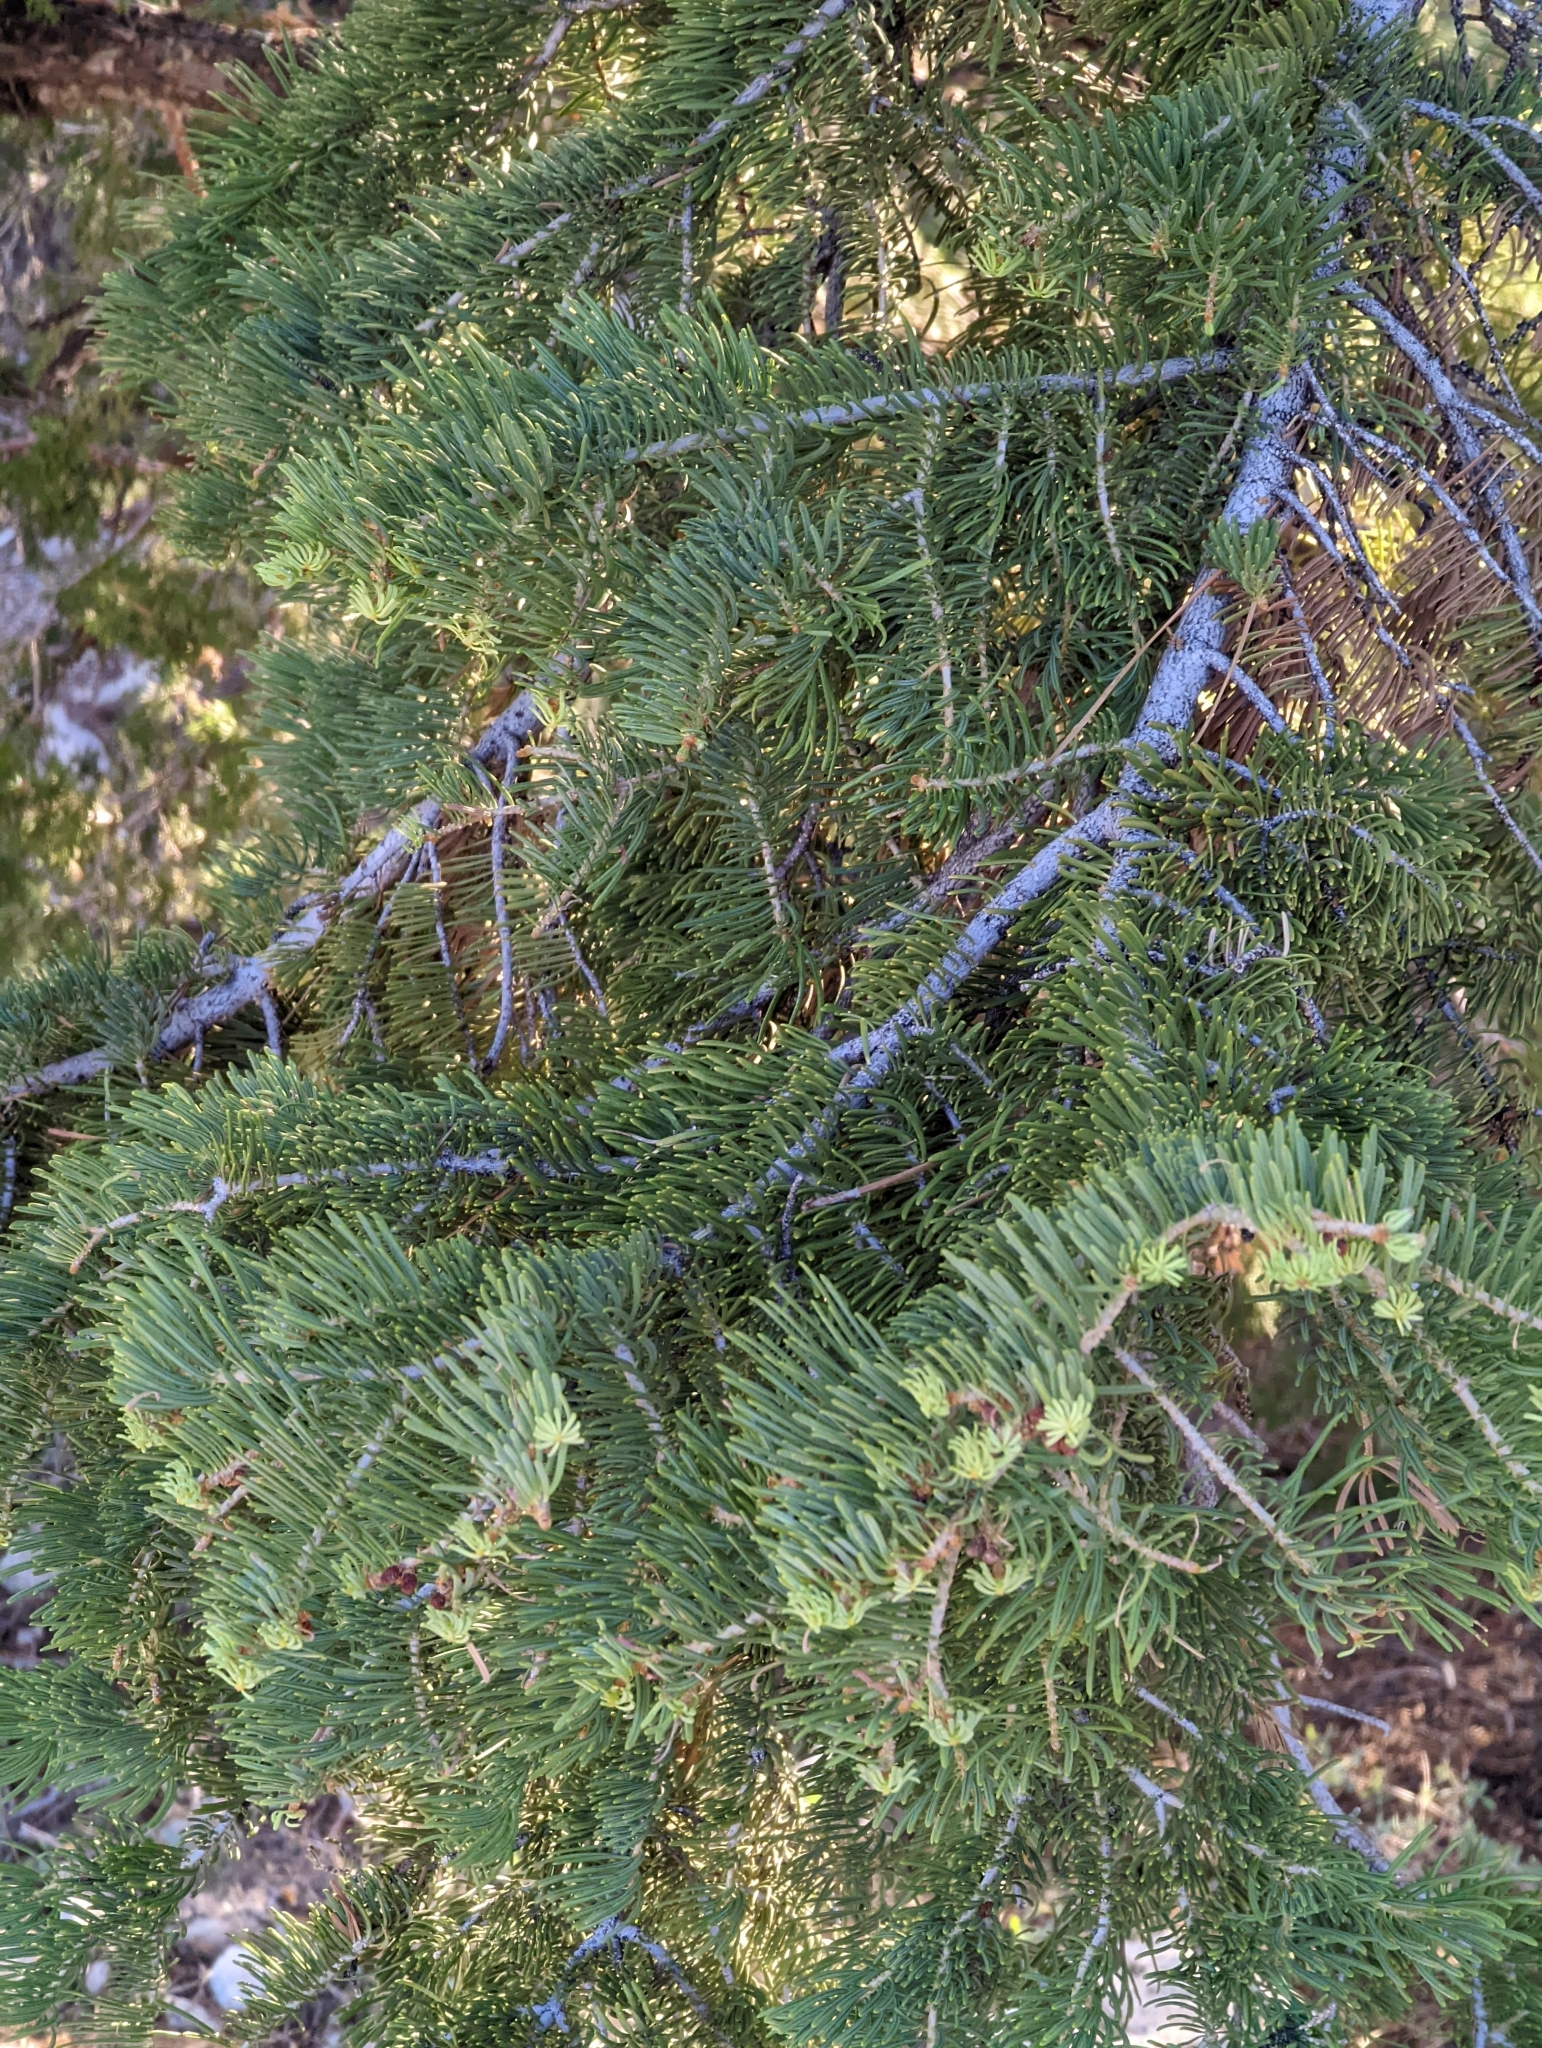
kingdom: Plantae
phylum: Tracheophyta
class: Pinopsida
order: Pinales
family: Pinaceae
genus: Abies
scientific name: Abies concolor
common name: Colorado fir
